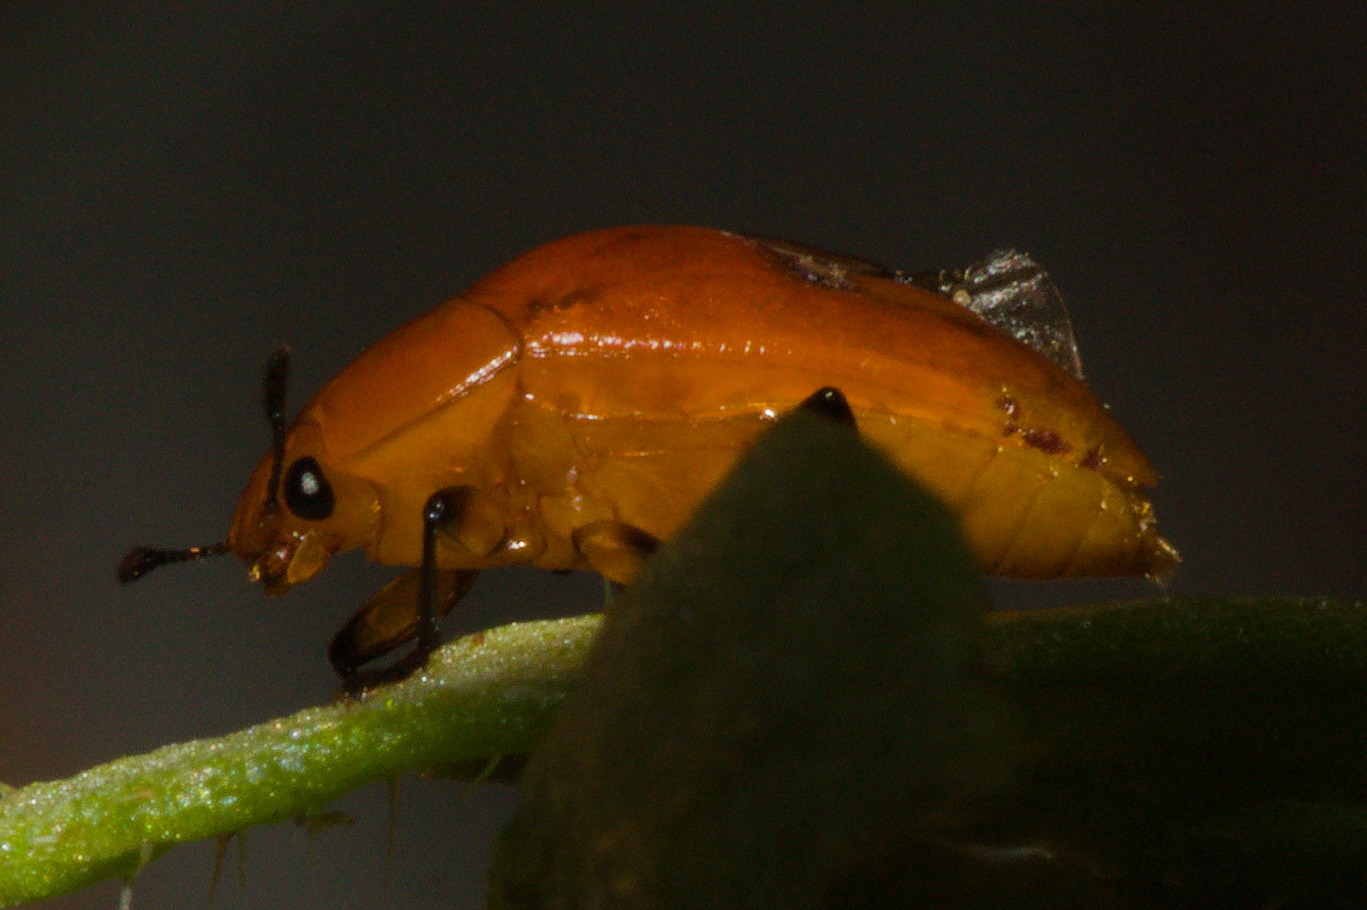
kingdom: Animalia
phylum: Arthropoda
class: Insecta
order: Coleoptera
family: Erotylidae
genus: Iphiclus
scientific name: Iphiclus
